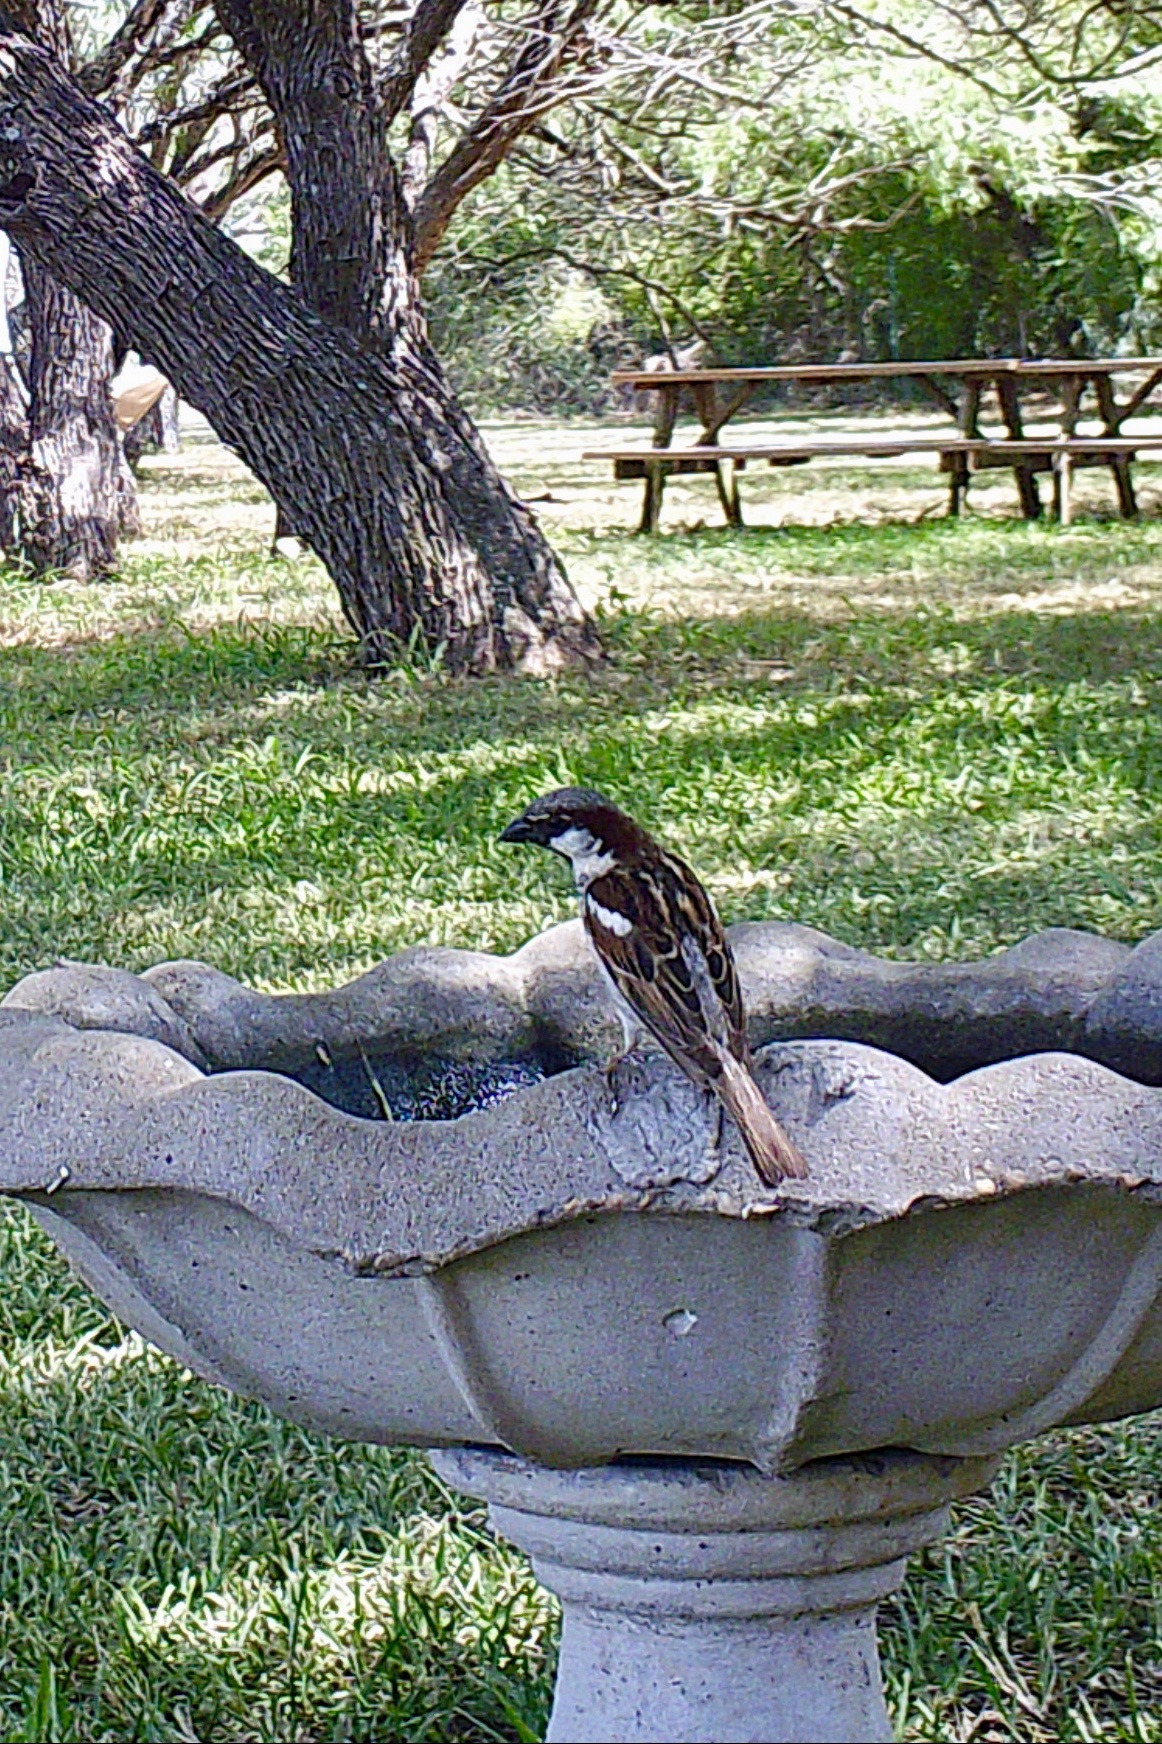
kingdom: Animalia
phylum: Chordata
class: Aves
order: Passeriformes
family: Passeridae
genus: Passer
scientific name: Passer domesticus
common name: House sparrow
